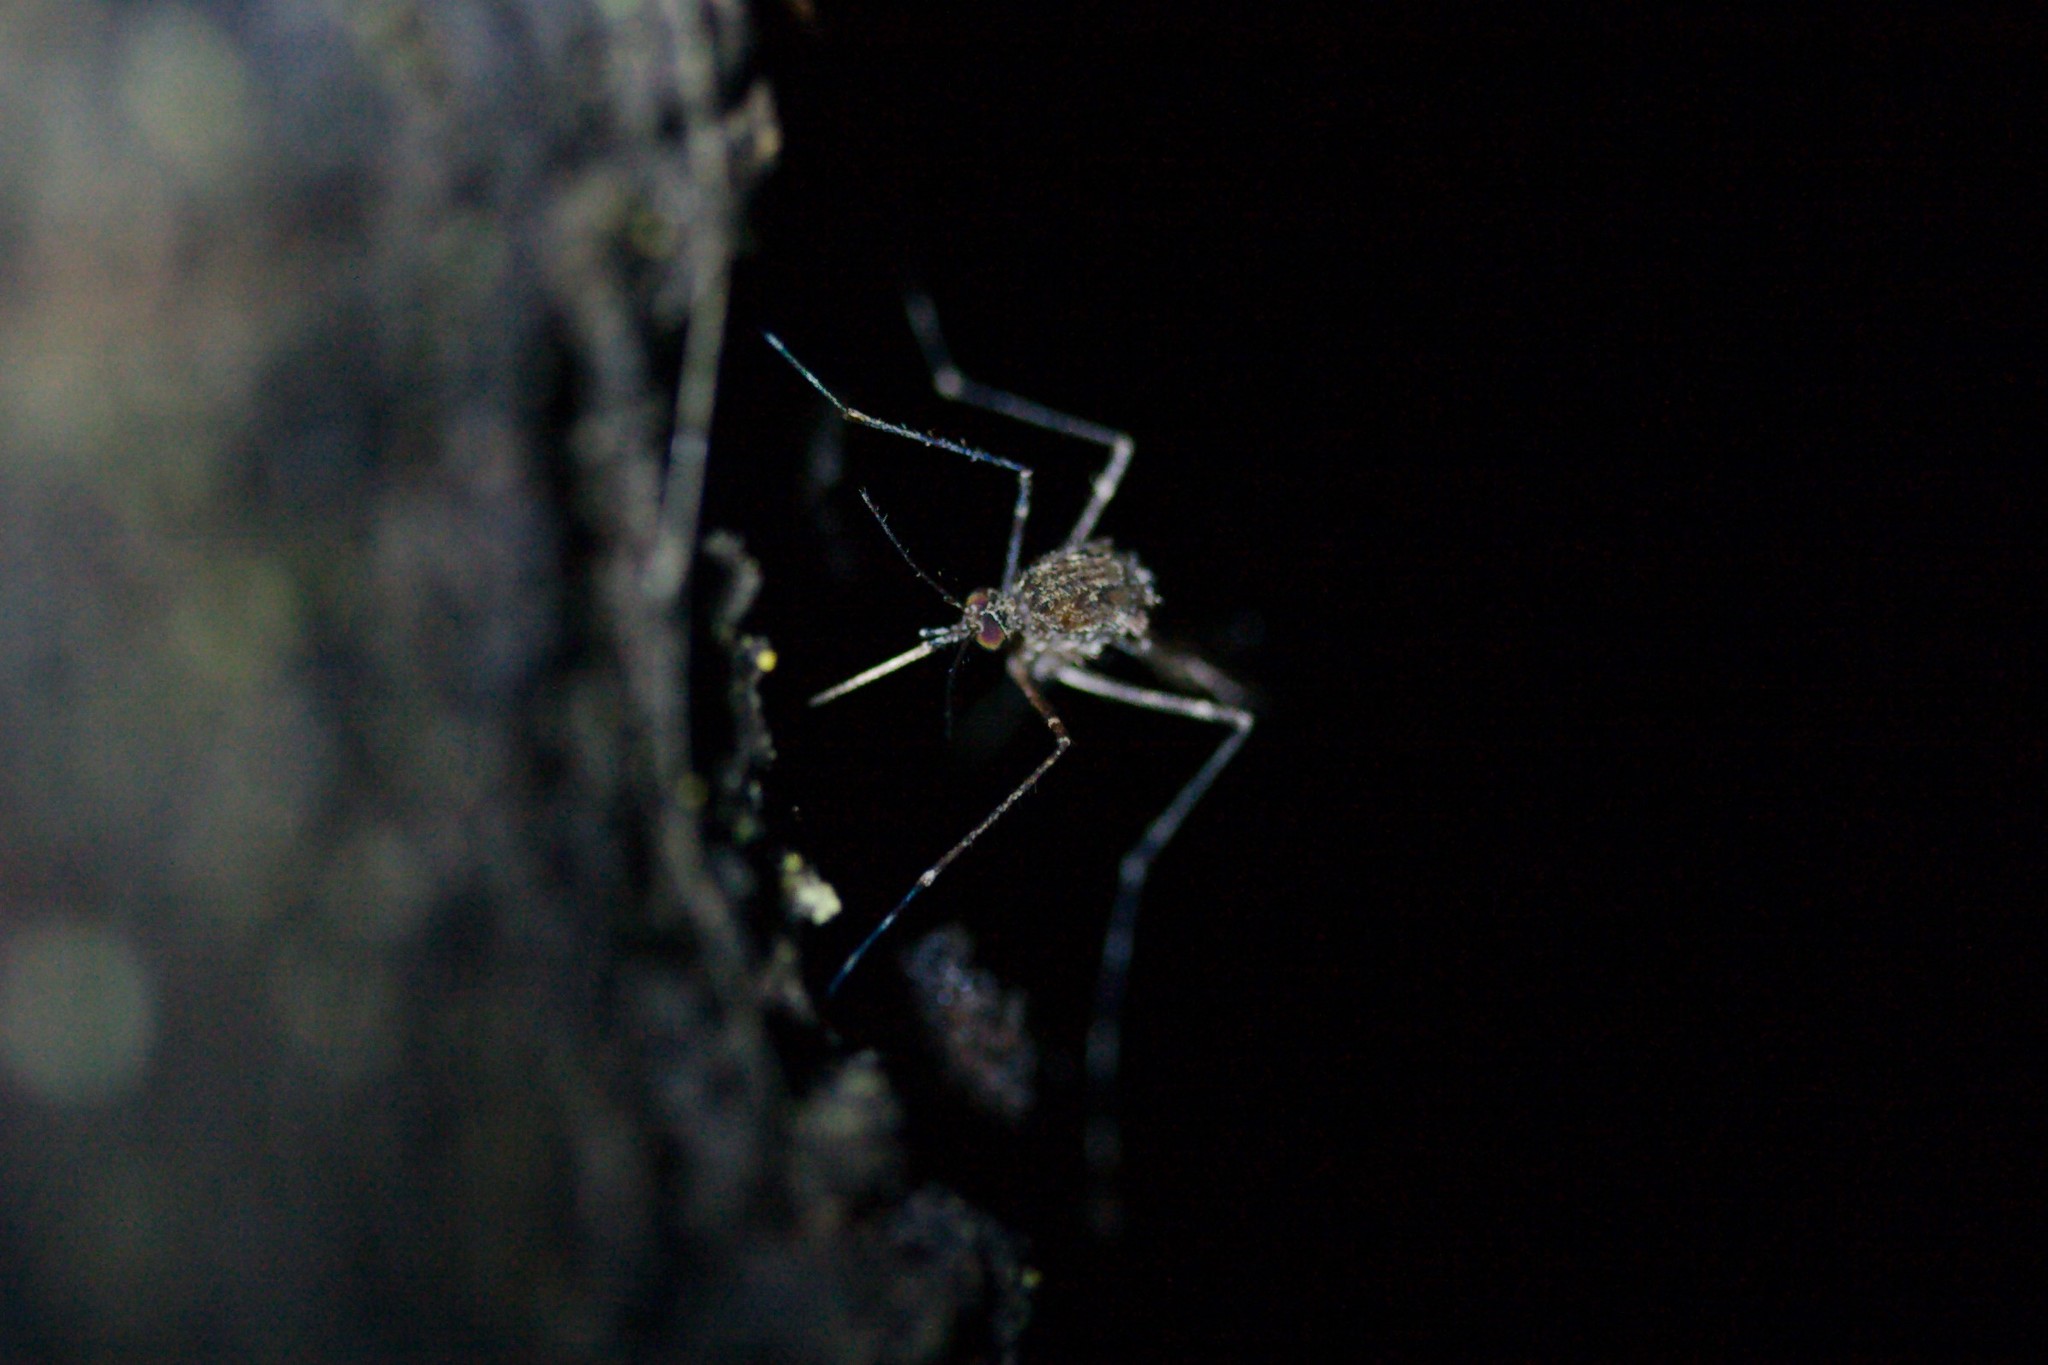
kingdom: Animalia
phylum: Arthropoda
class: Insecta
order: Diptera
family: Culicidae
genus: Culiseta
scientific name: Culiseta annulata
